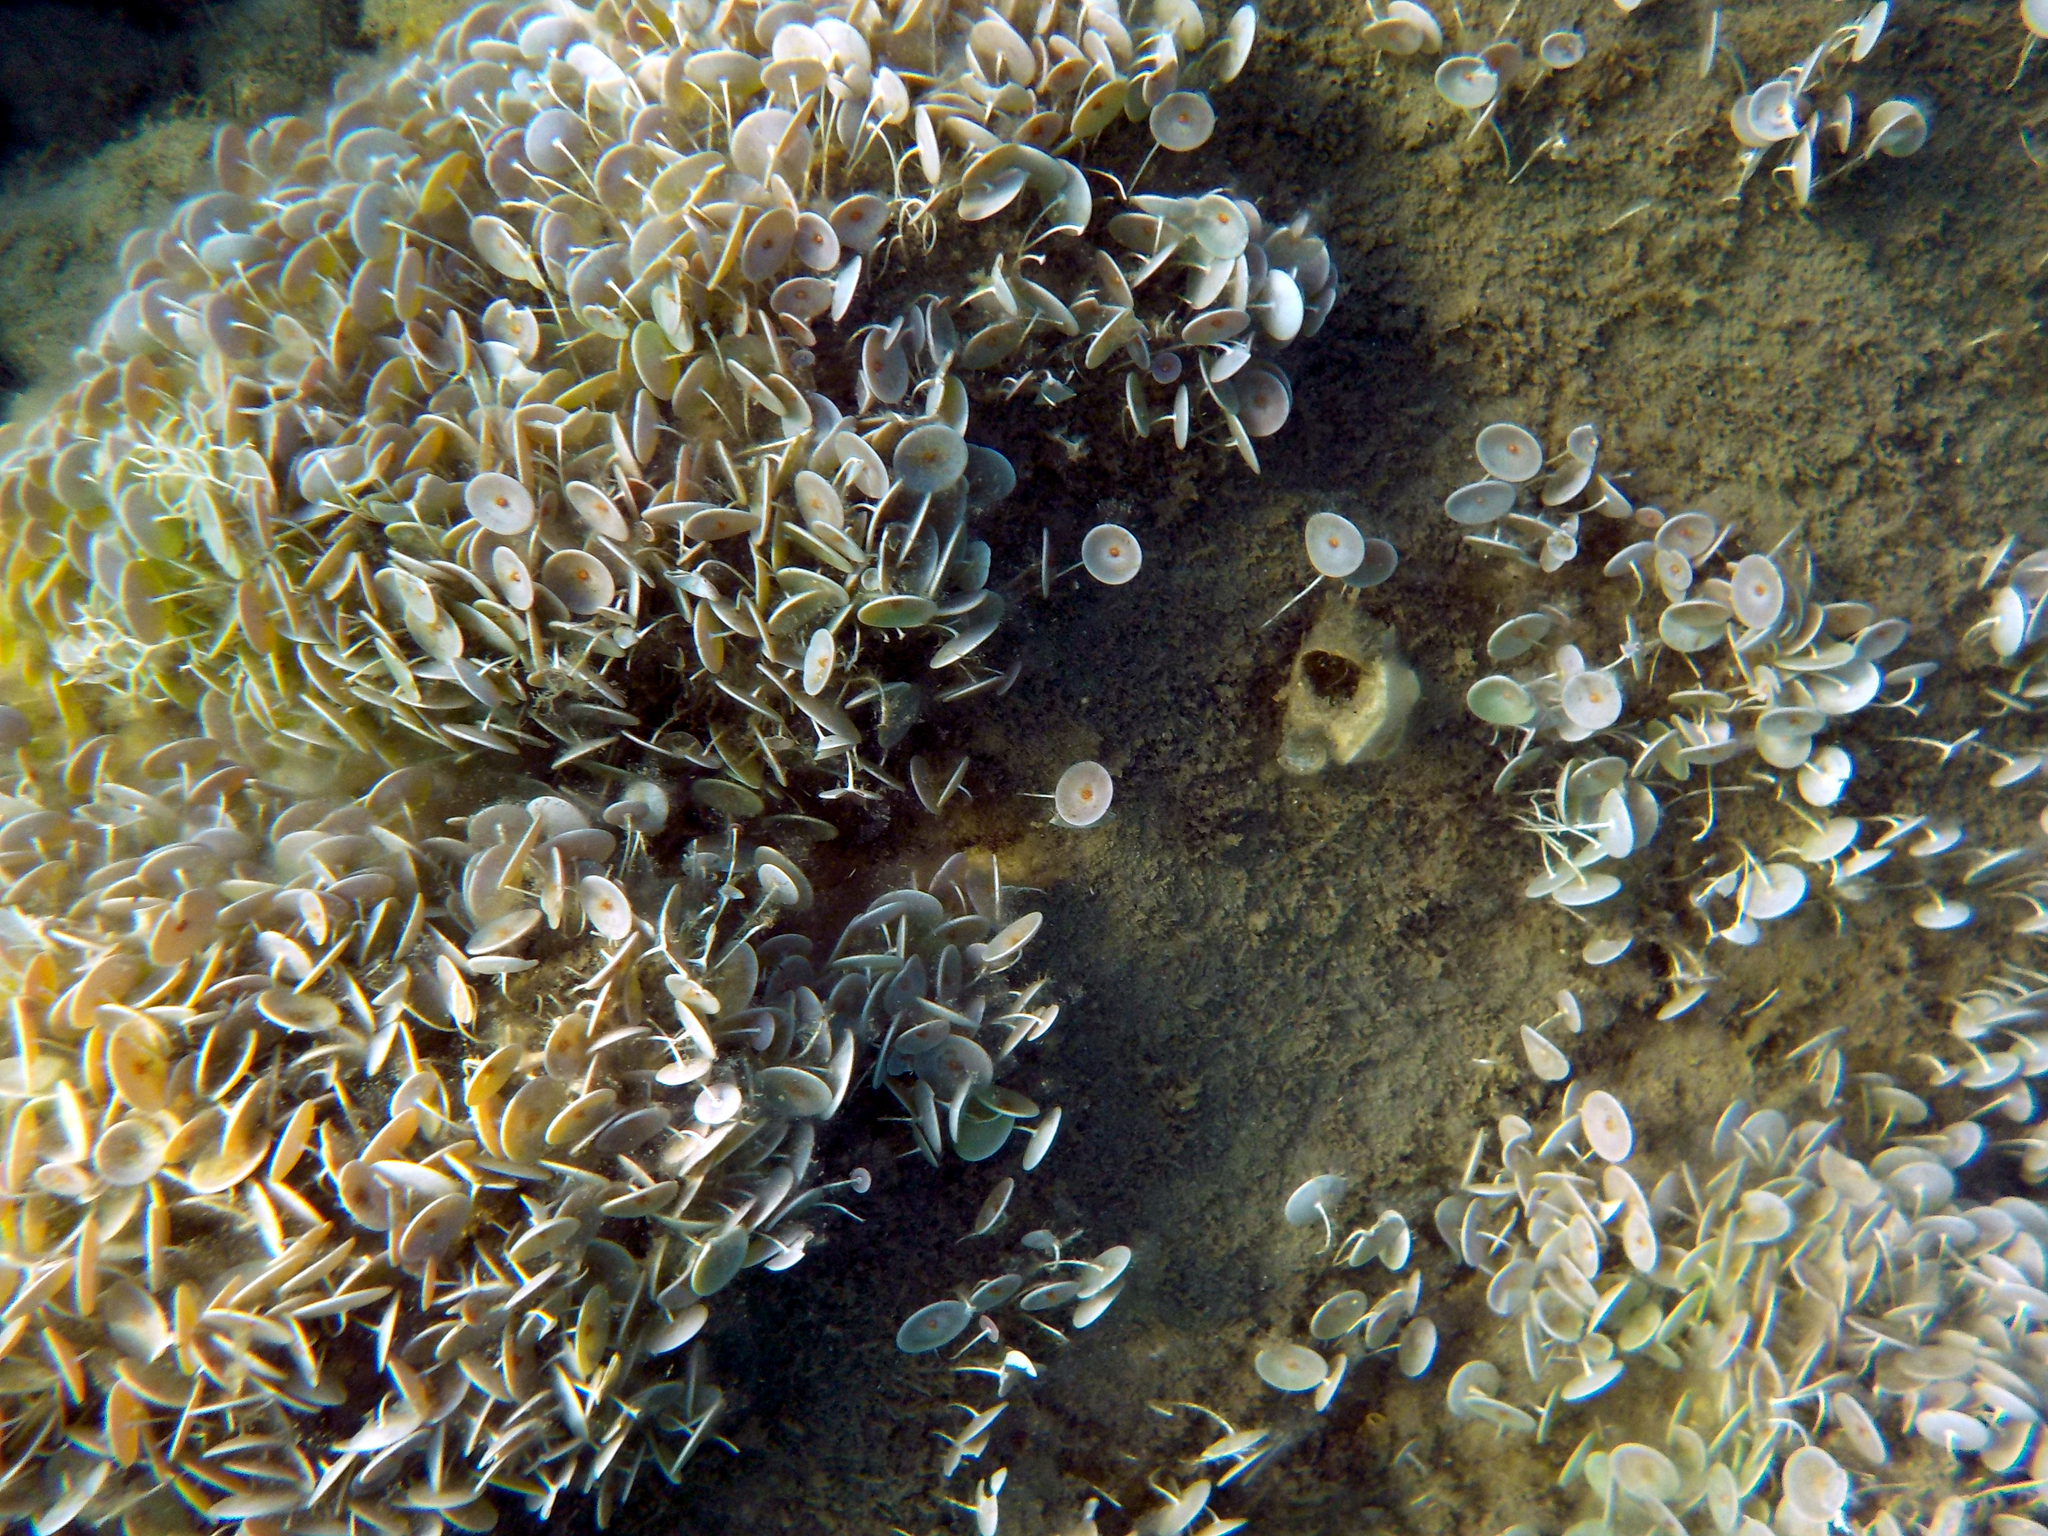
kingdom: Plantae
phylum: Chlorophyta
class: Ulvophyceae
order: Dasycladales
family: Polyphysaceae
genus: Acetabularia
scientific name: Acetabularia acetabulum
